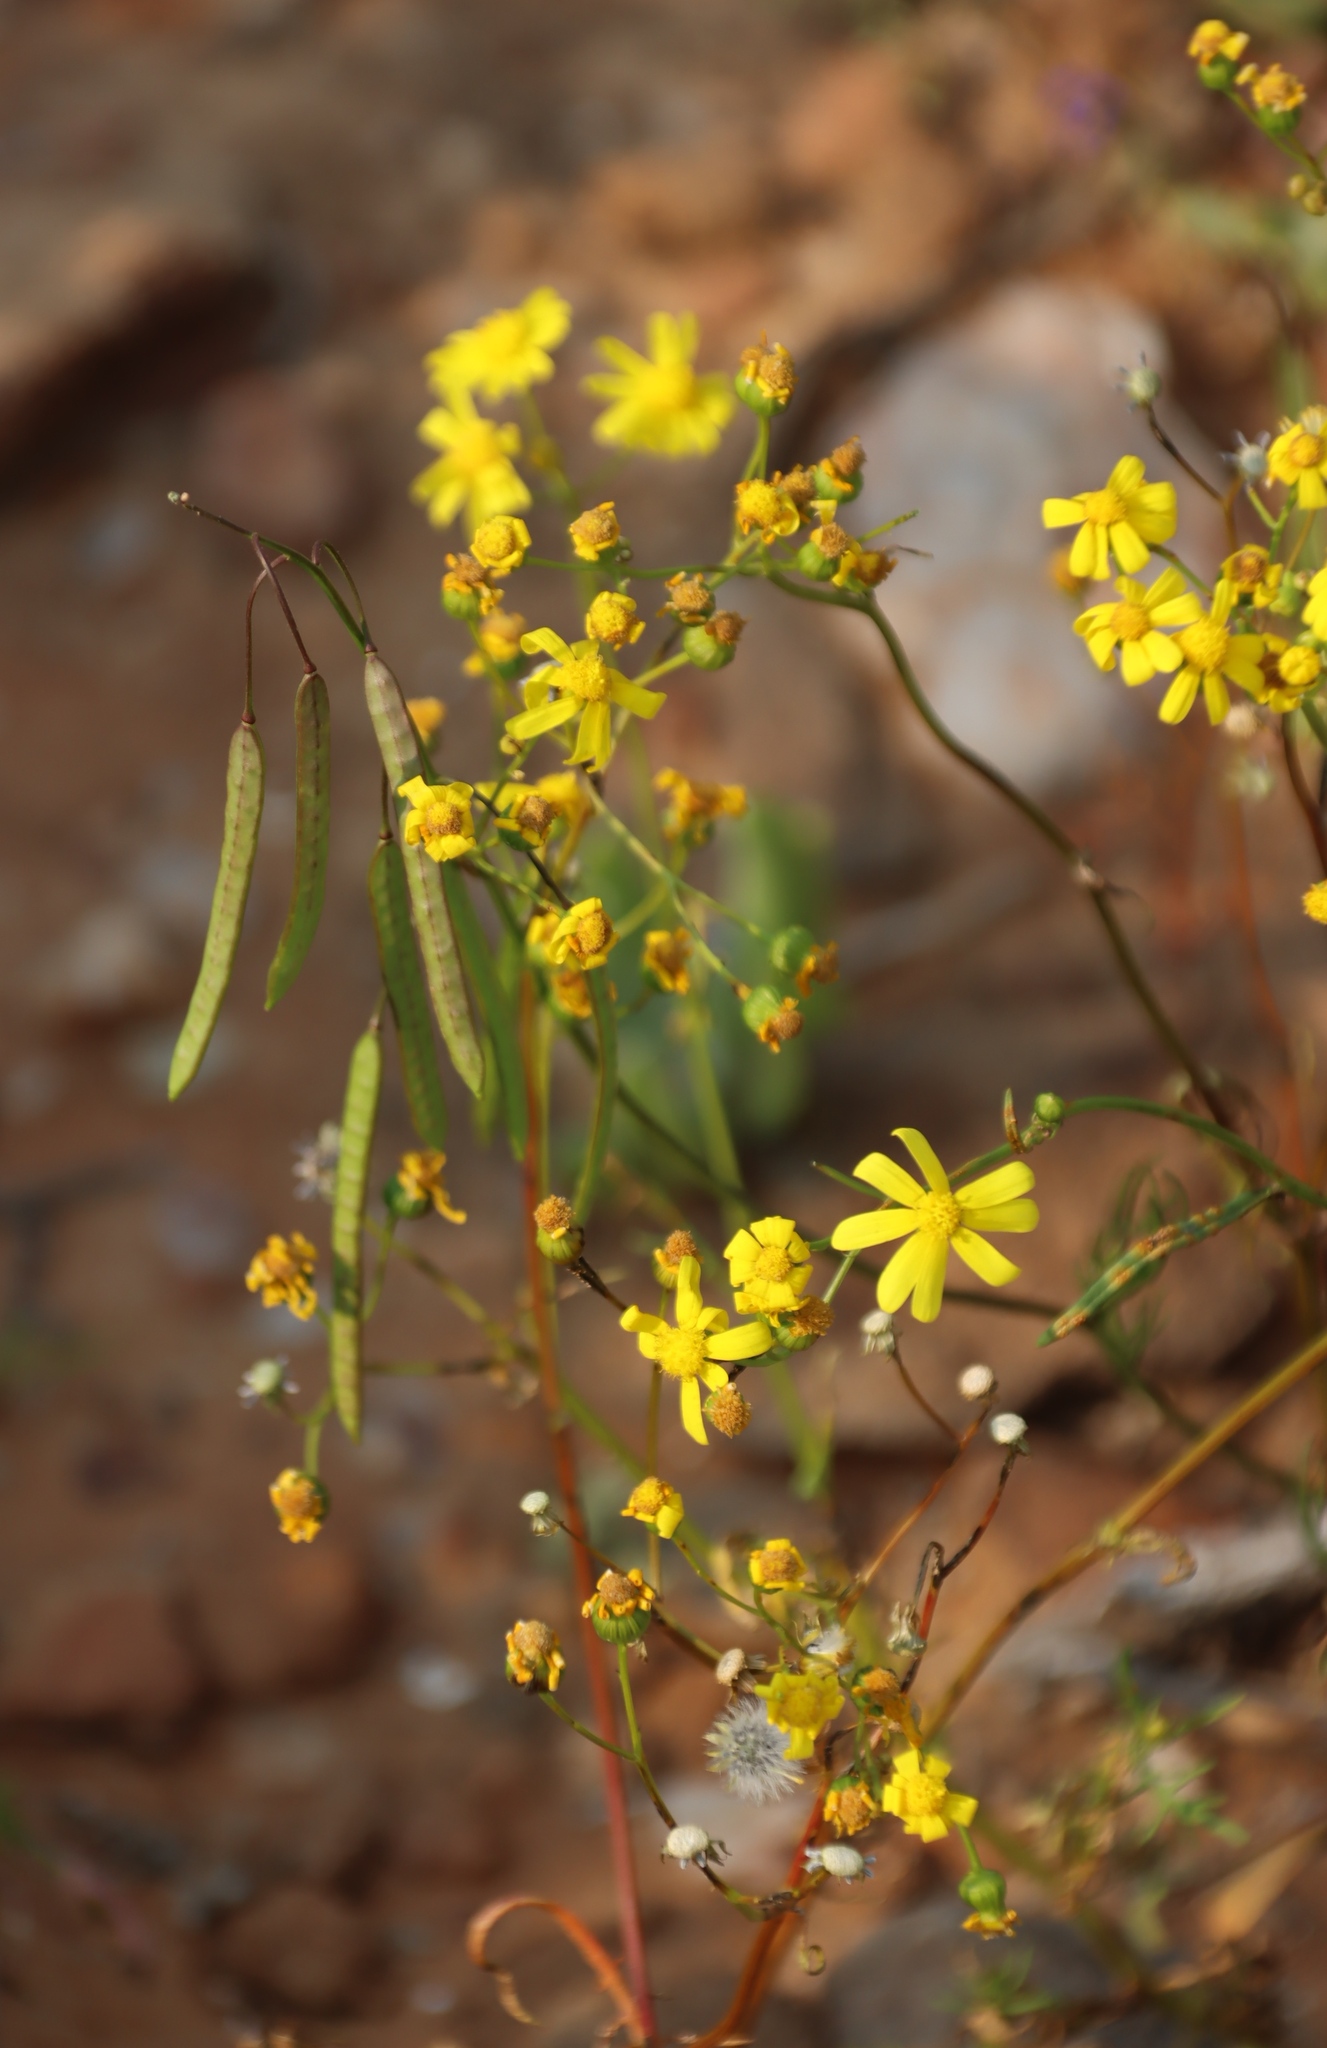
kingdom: Plantae
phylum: Tracheophyta
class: Magnoliopsida
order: Brassicales
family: Brassicaceae
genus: Heliophila
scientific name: Heliophila thunbergii
